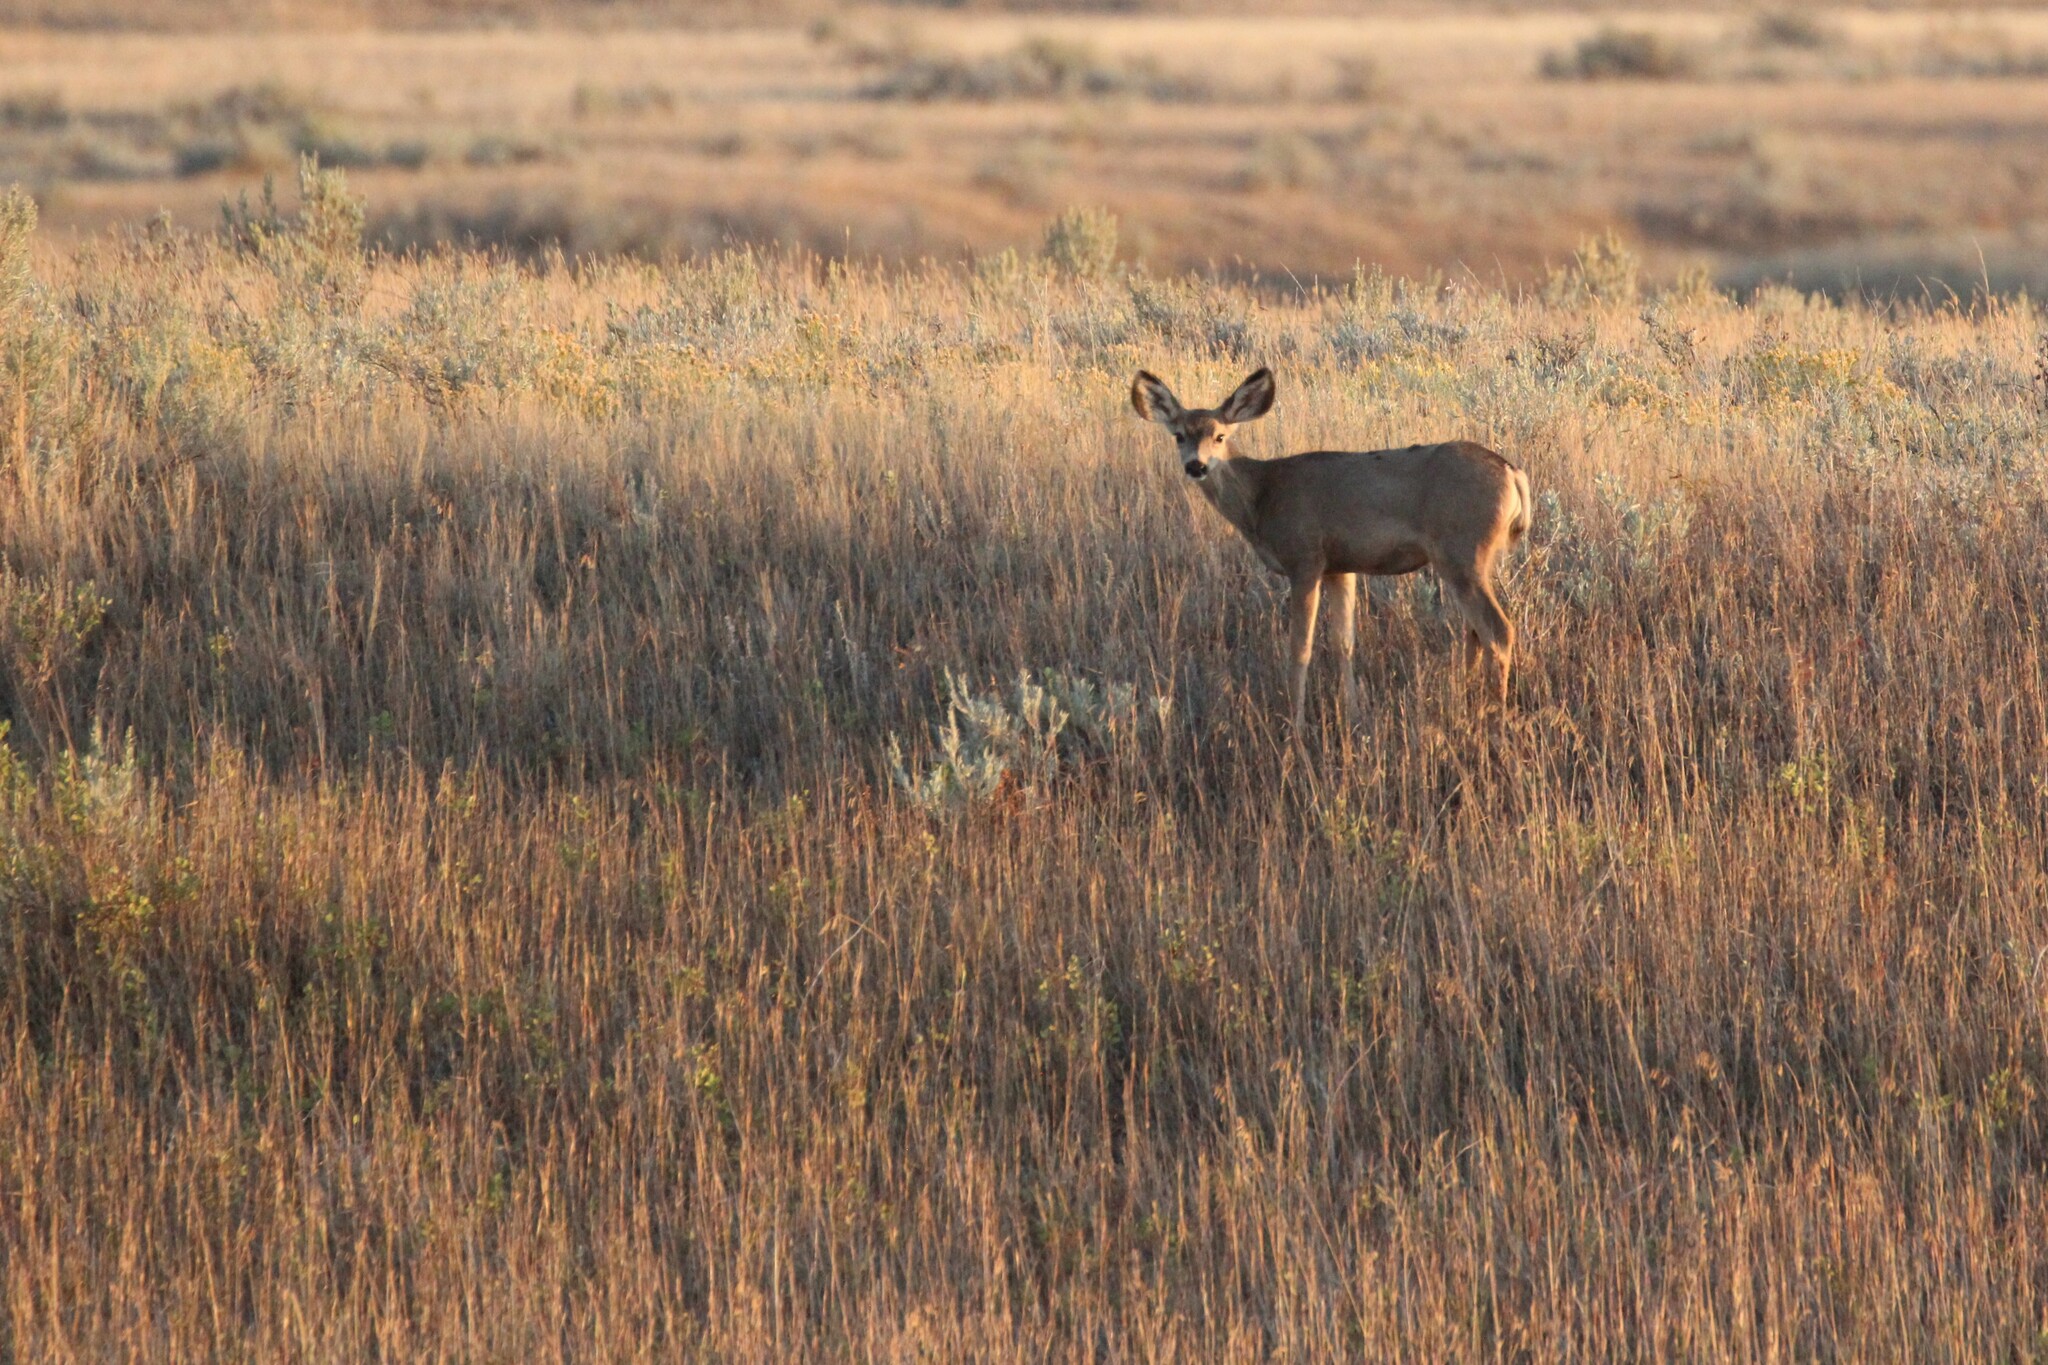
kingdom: Animalia
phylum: Chordata
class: Mammalia
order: Artiodactyla
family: Cervidae
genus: Odocoileus
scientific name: Odocoileus hemionus
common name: Mule deer
